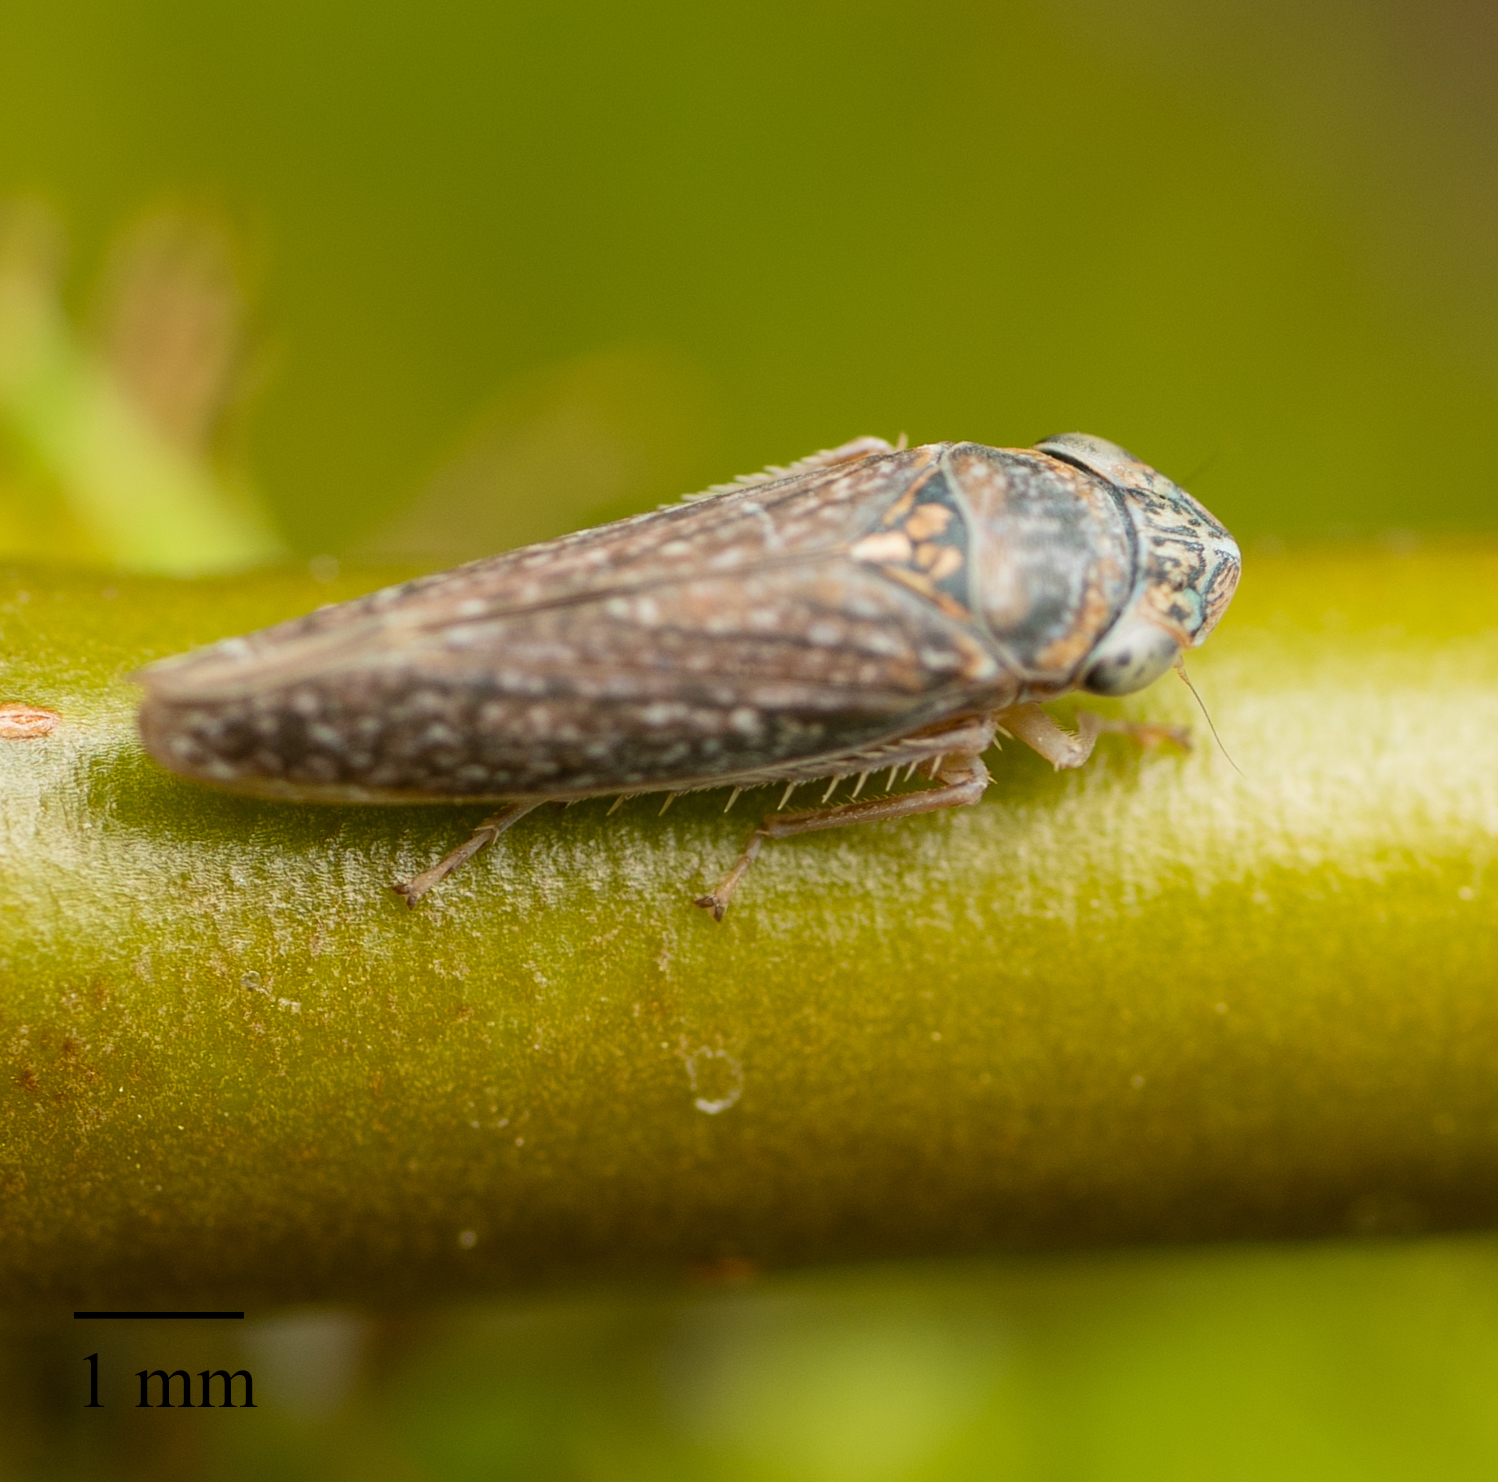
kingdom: Animalia
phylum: Arthropoda
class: Insecta
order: Hemiptera
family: Cicadellidae
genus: Graphocephala
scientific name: Graphocephala confluens
